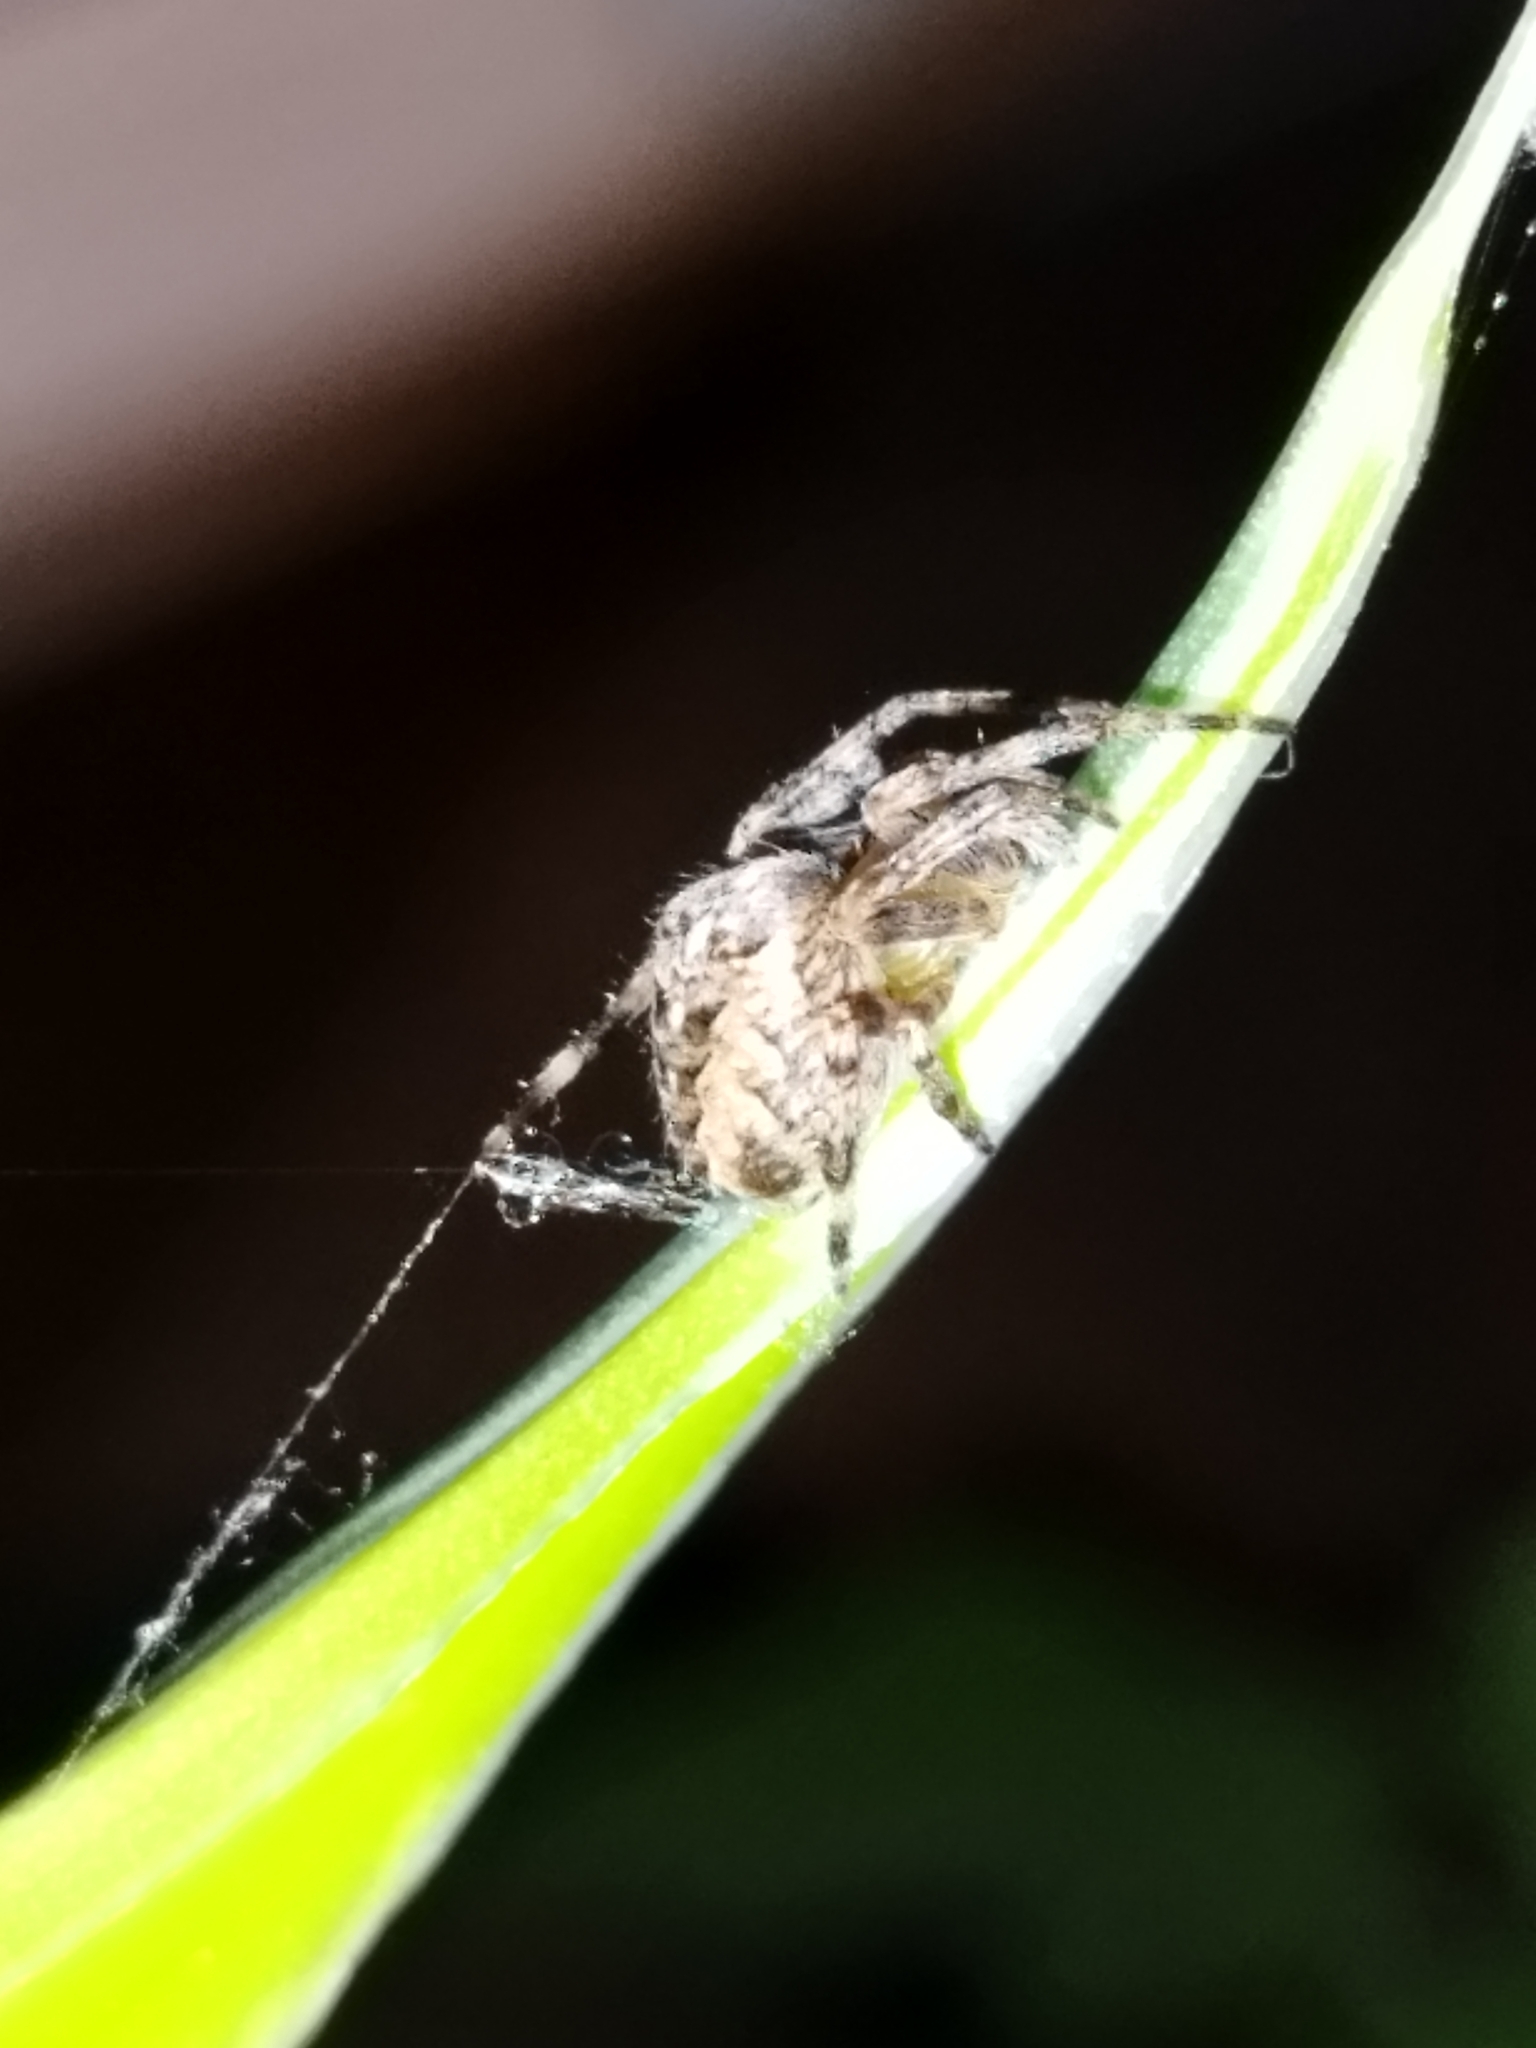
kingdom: Animalia
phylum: Arthropoda
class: Arachnida
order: Araneae
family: Araneidae
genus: Araneus
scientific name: Araneus diadematus
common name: Cross orbweaver
